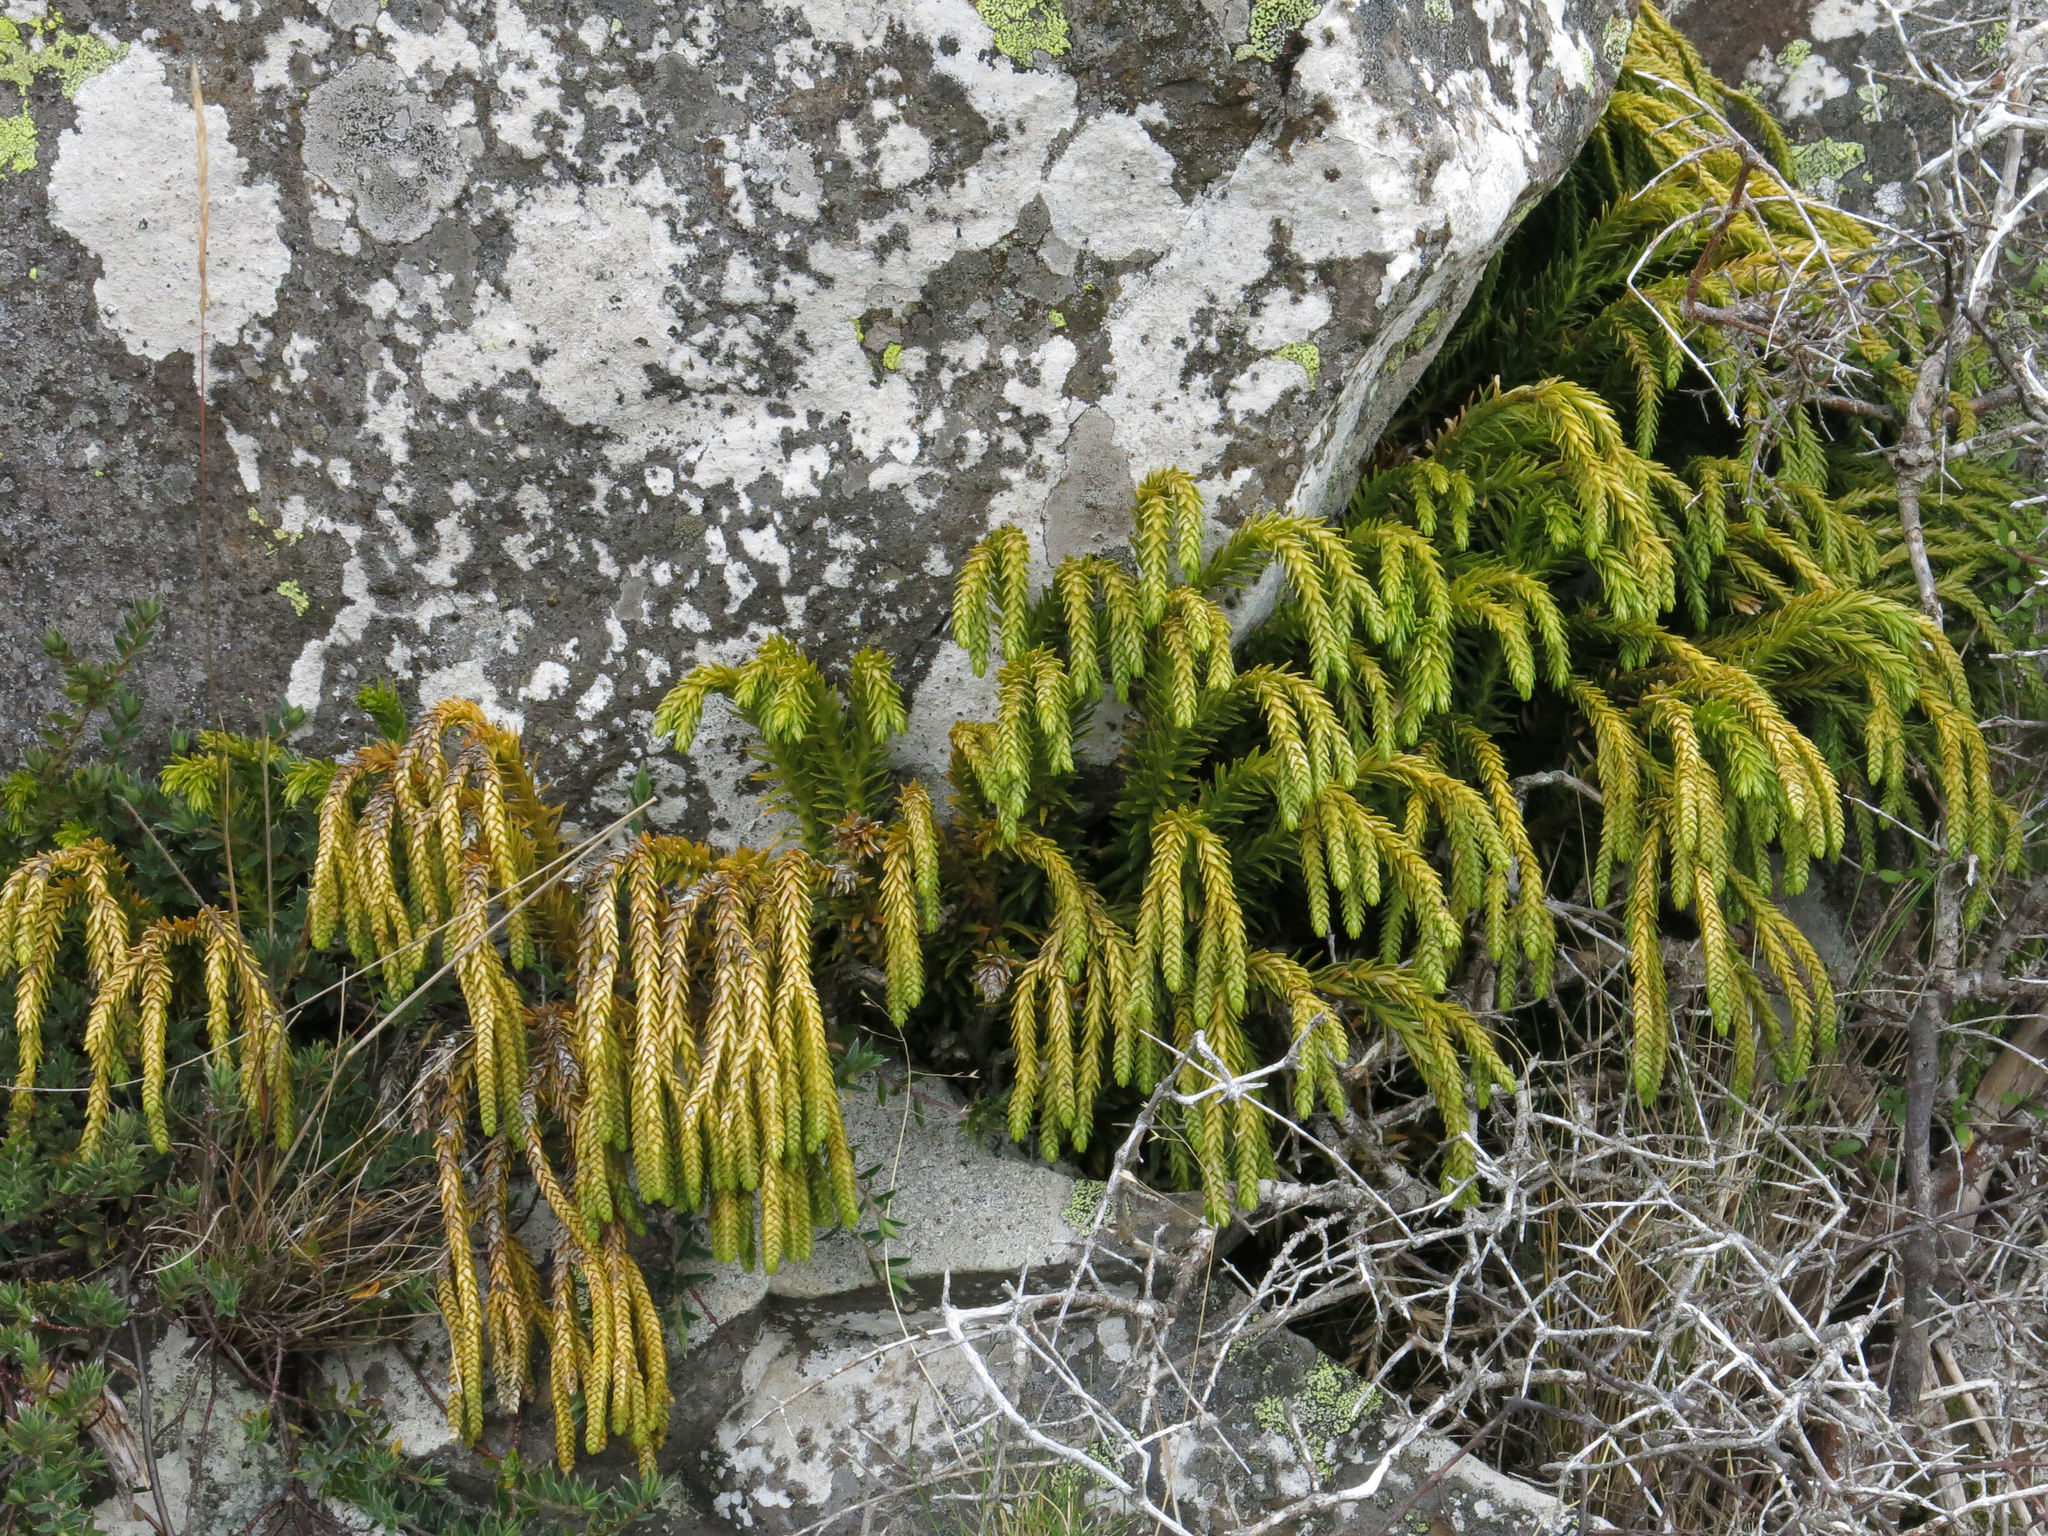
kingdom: Plantae
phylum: Tracheophyta
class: Lycopodiopsida
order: Lycopodiales
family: Lycopodiaceae
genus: Phlegmariurus
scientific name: Phlegmariurus varius
